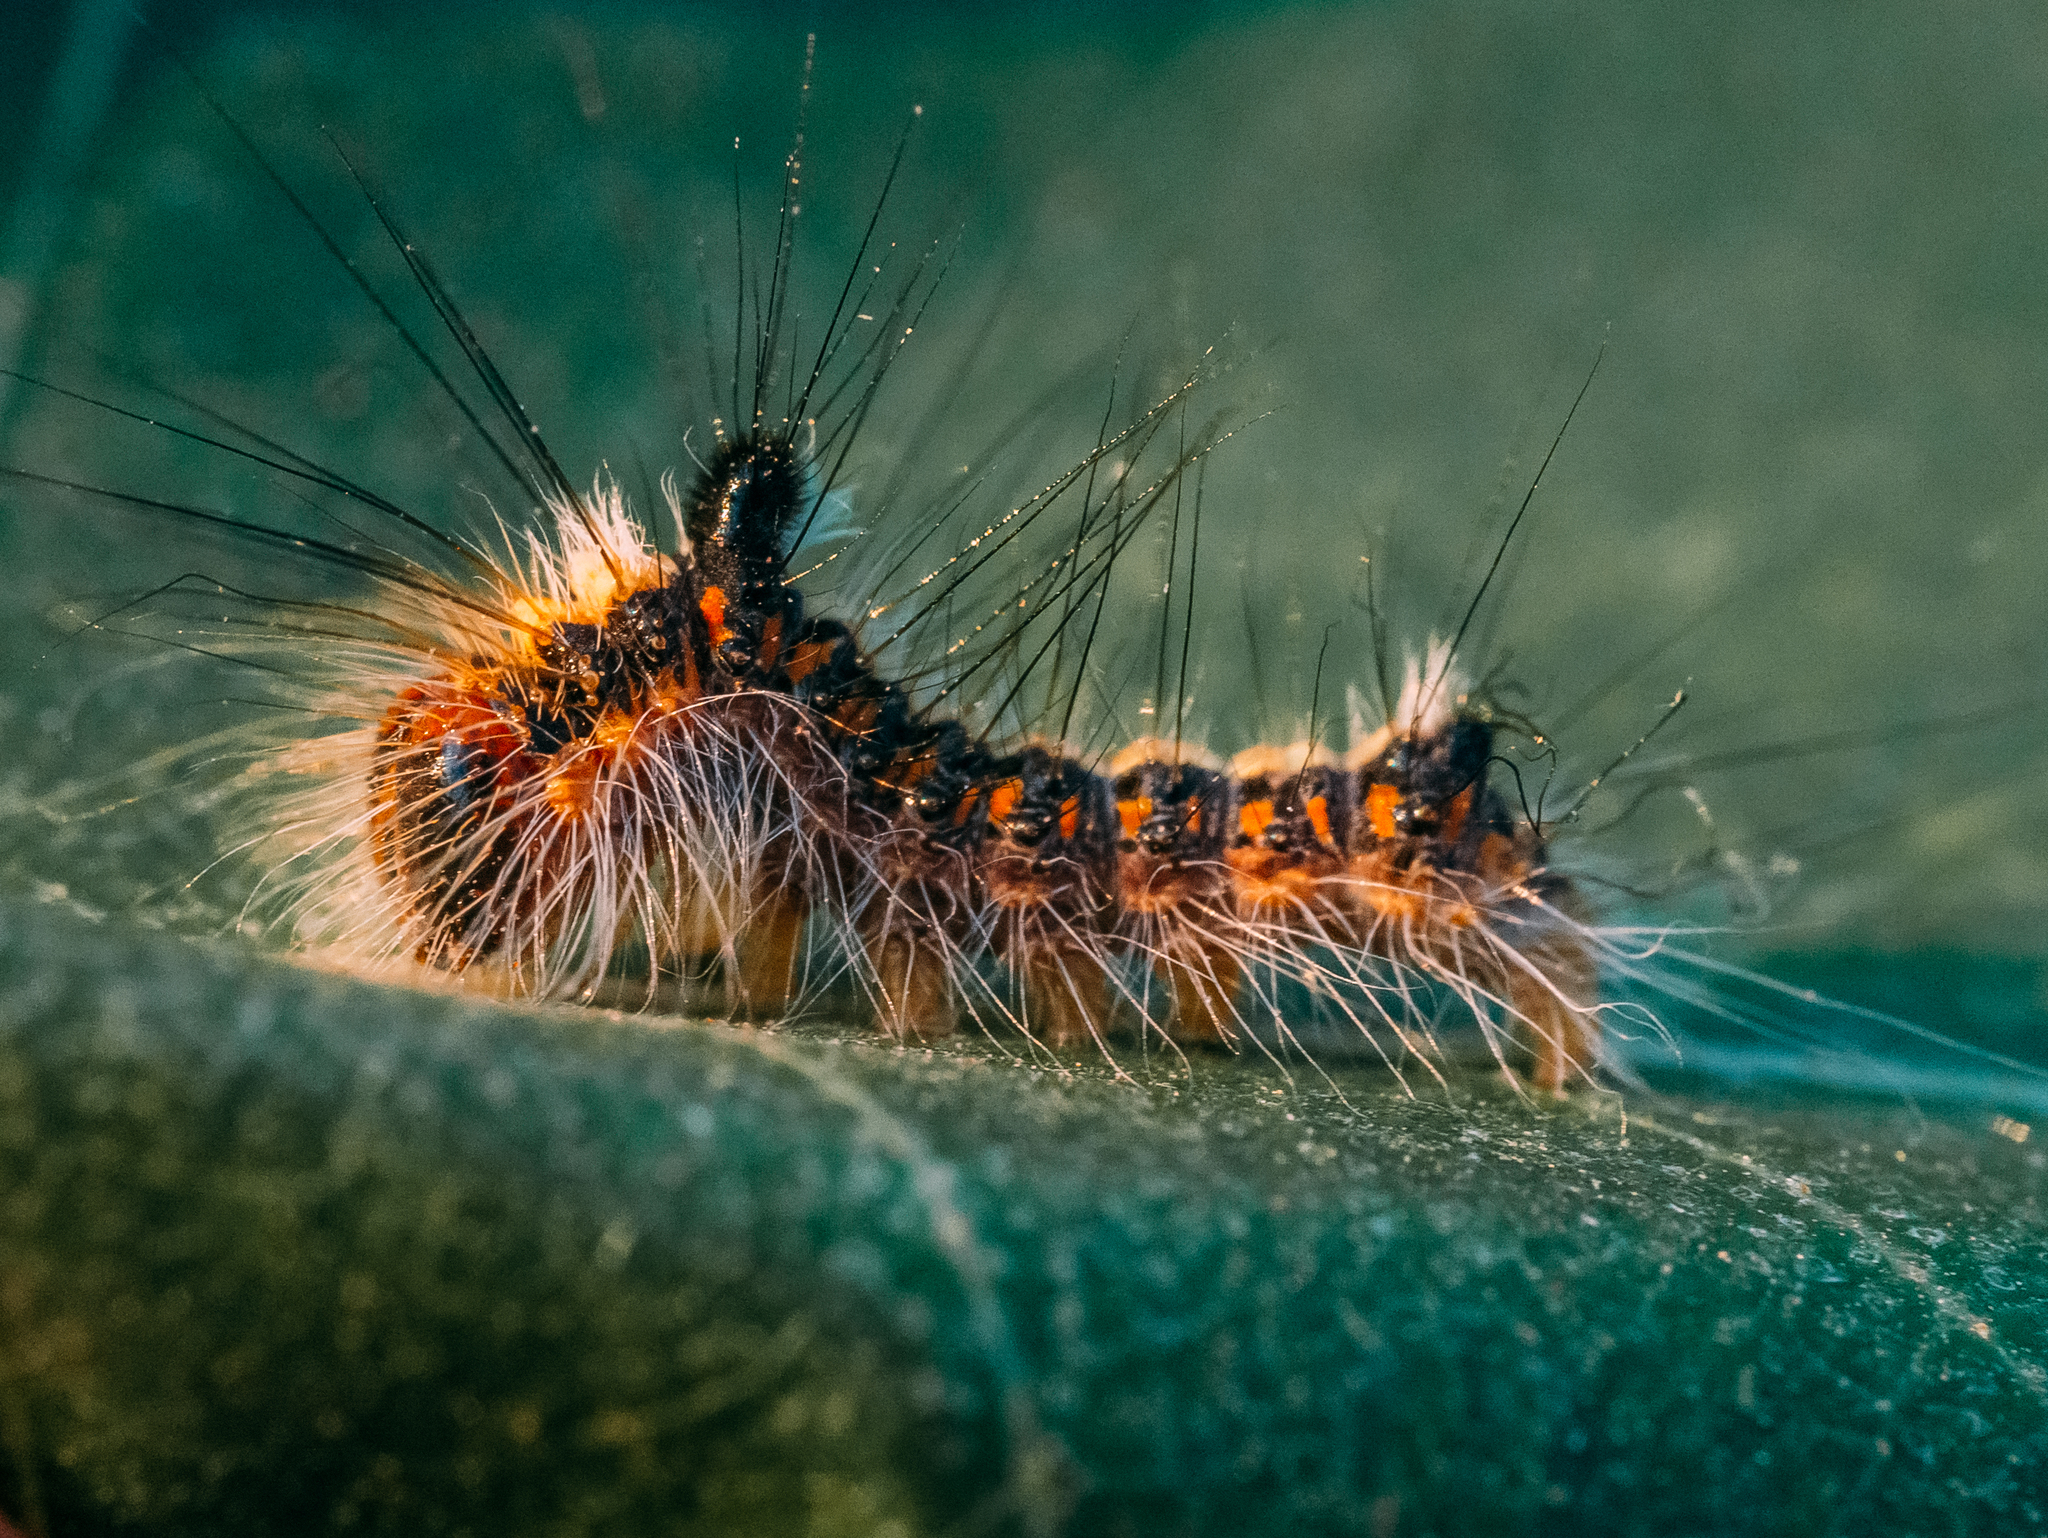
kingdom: Animalia
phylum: Arthropoda
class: Insecta
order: Lepidoptera
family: Noctuidae
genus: Acronicta
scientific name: Acronicta psi
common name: Grey dagger
